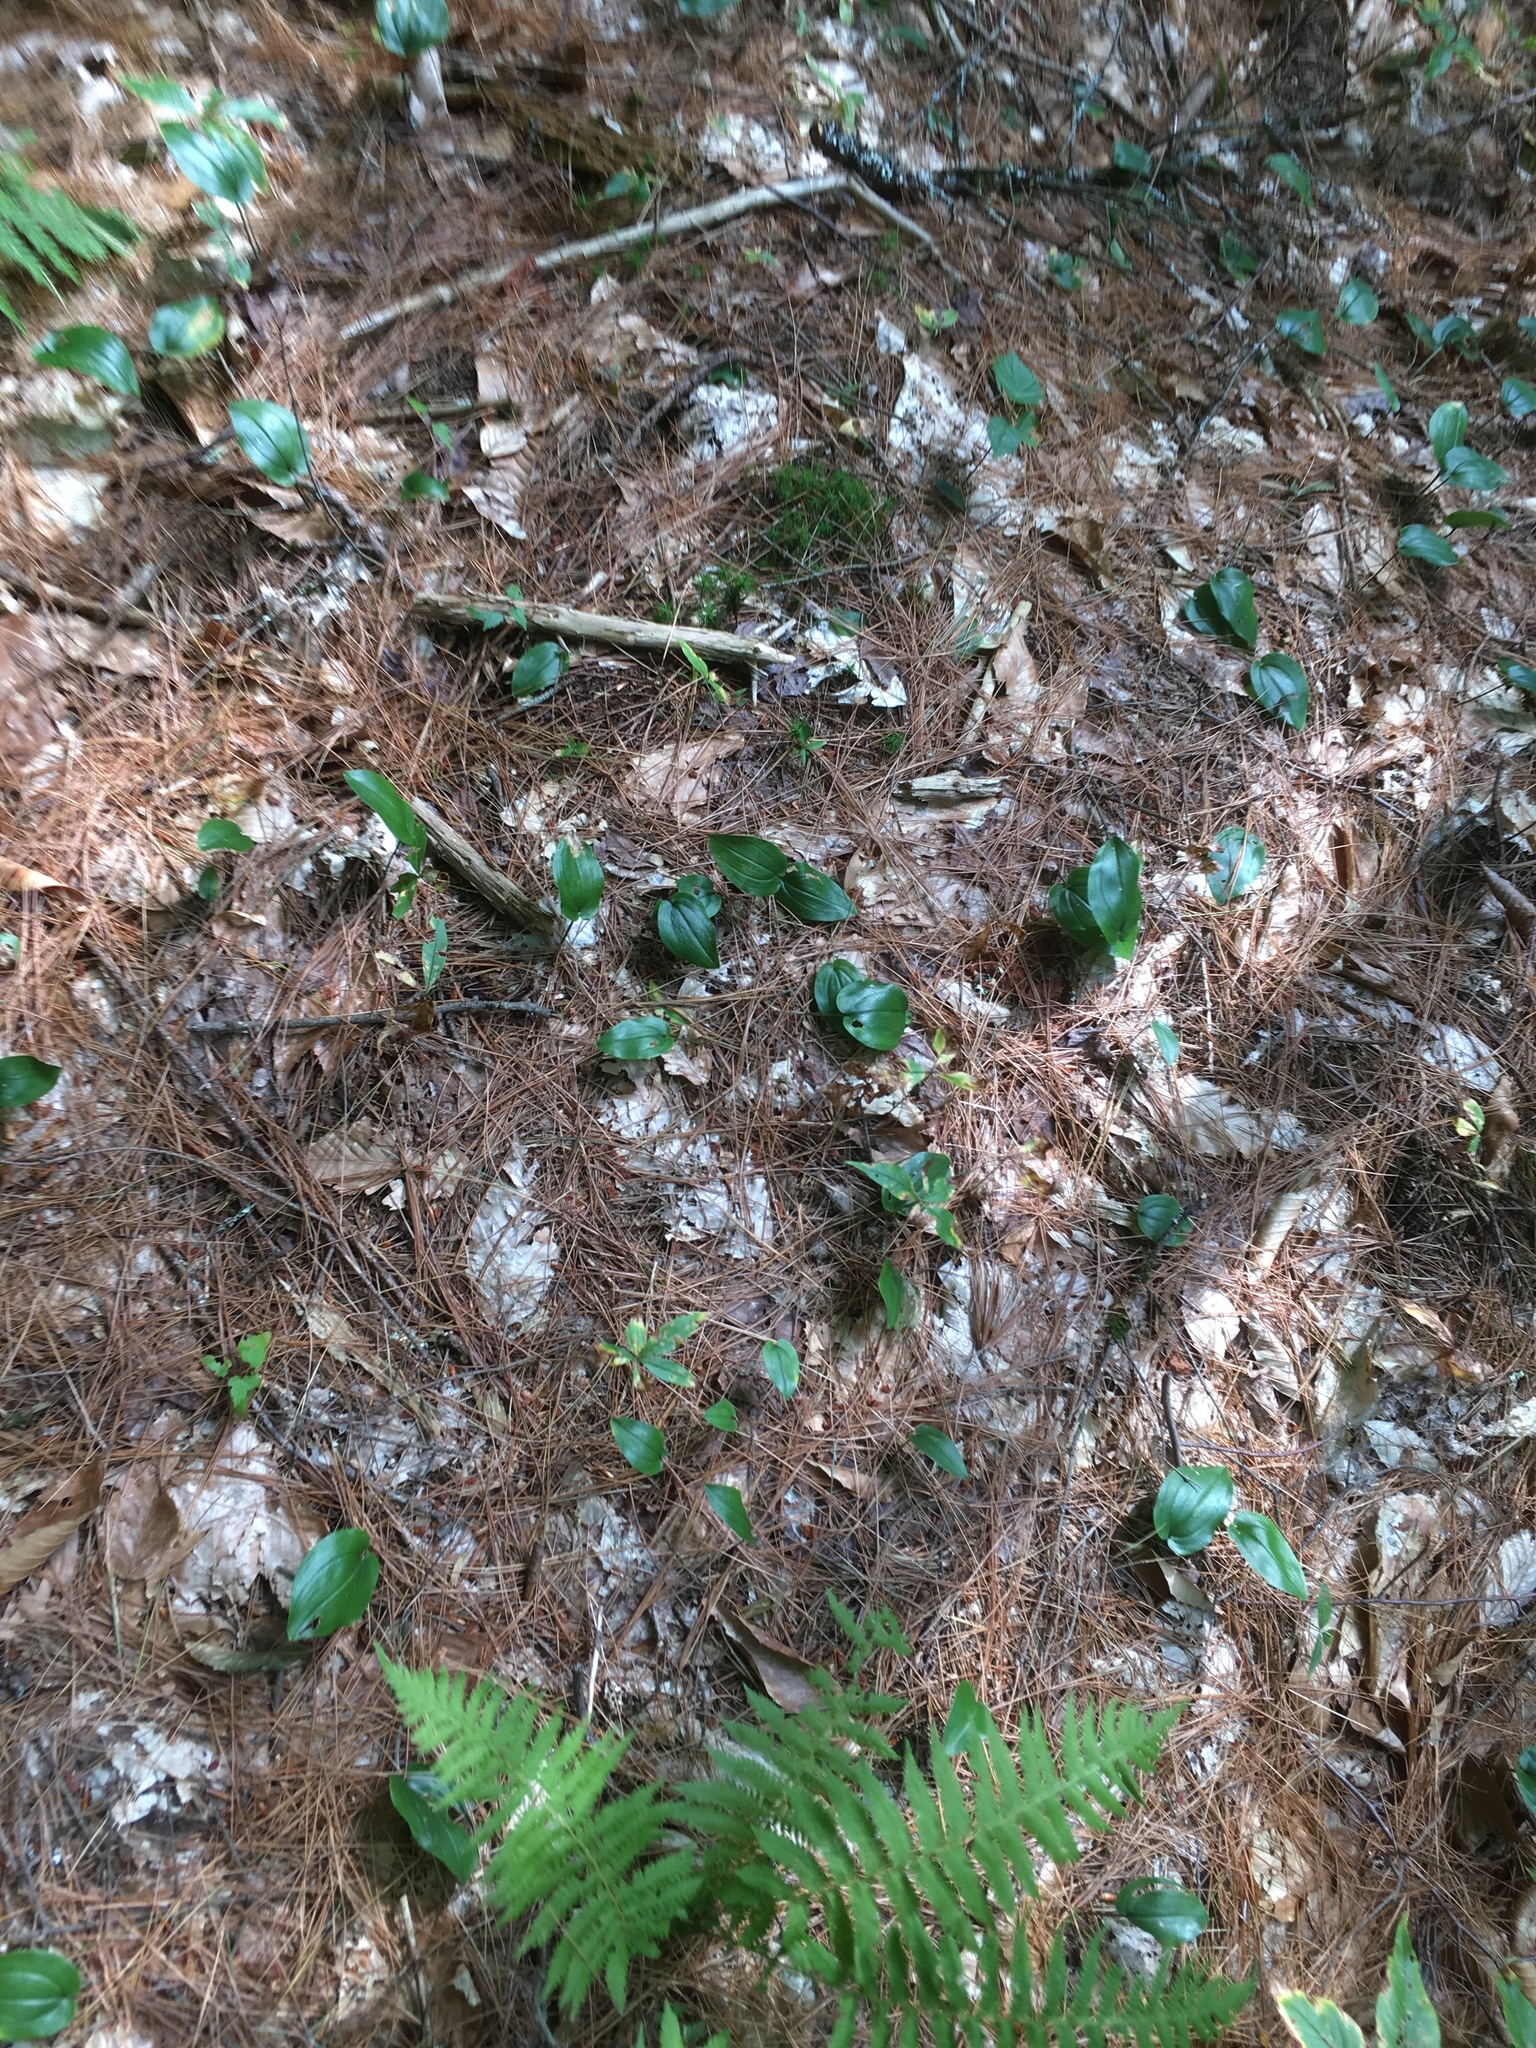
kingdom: Plantae
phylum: Tracheophyta
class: Liliopsida
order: Asparagales
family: Asparagaceae
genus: Maianthemum
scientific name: Maianthemum canadense
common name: False lily-of-the-valley
